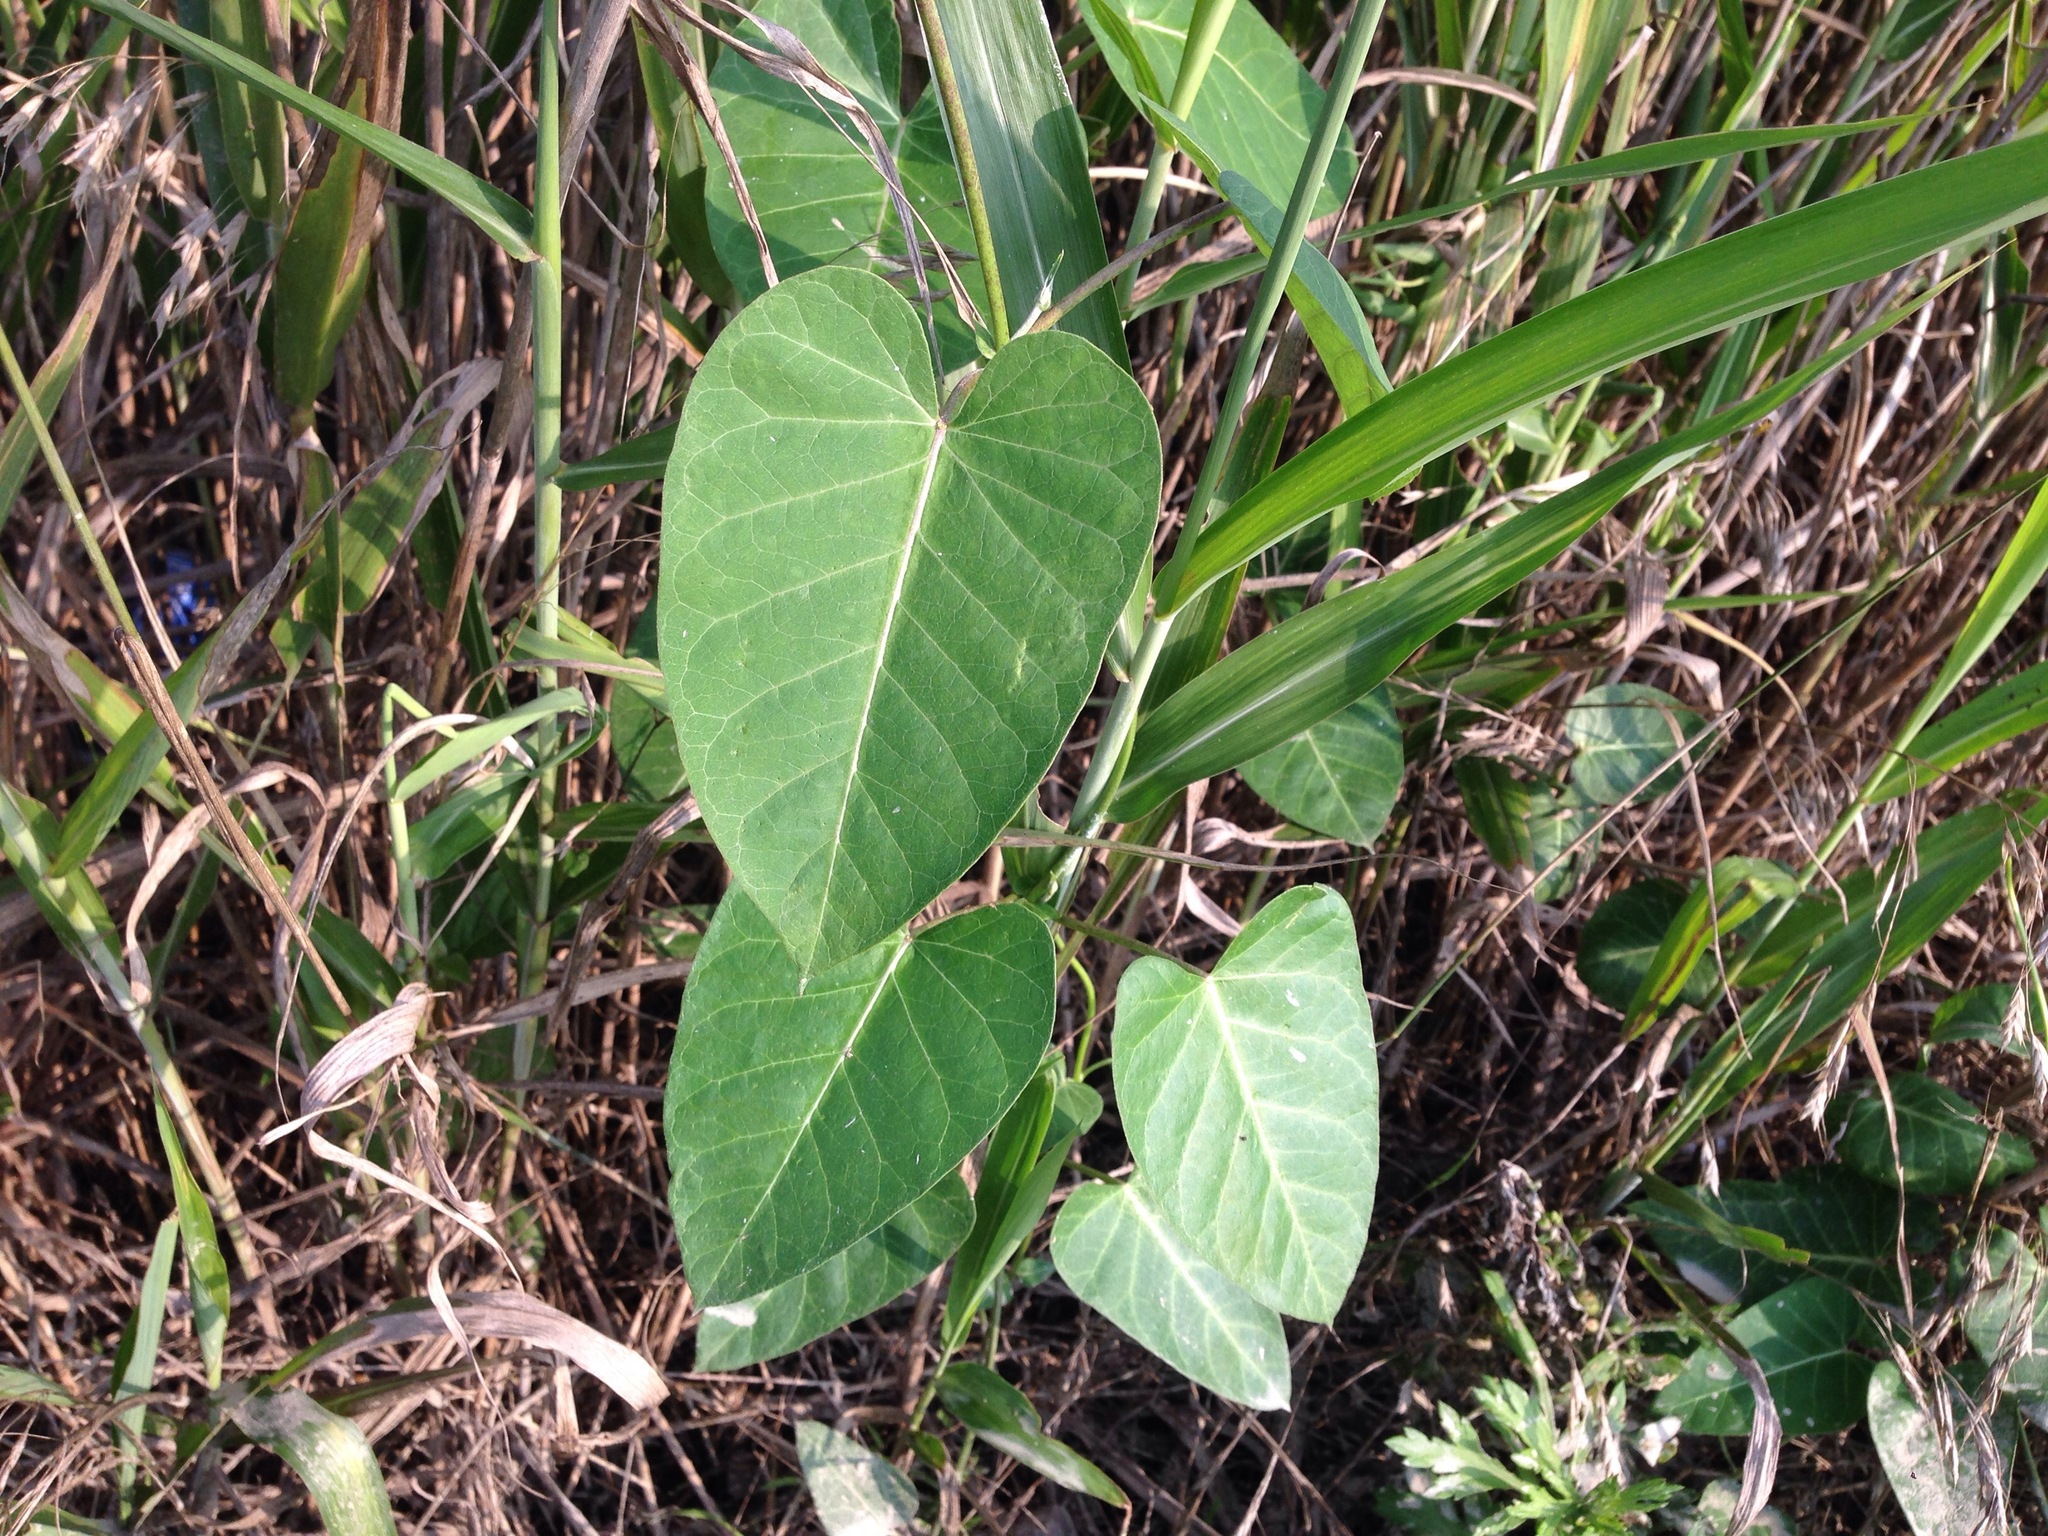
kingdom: Plantae
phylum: Tracheophyta
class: Magnoliopsida
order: Gentianales
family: Apocynaceae
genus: Cynanchum
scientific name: Cynanchum rostellatum
